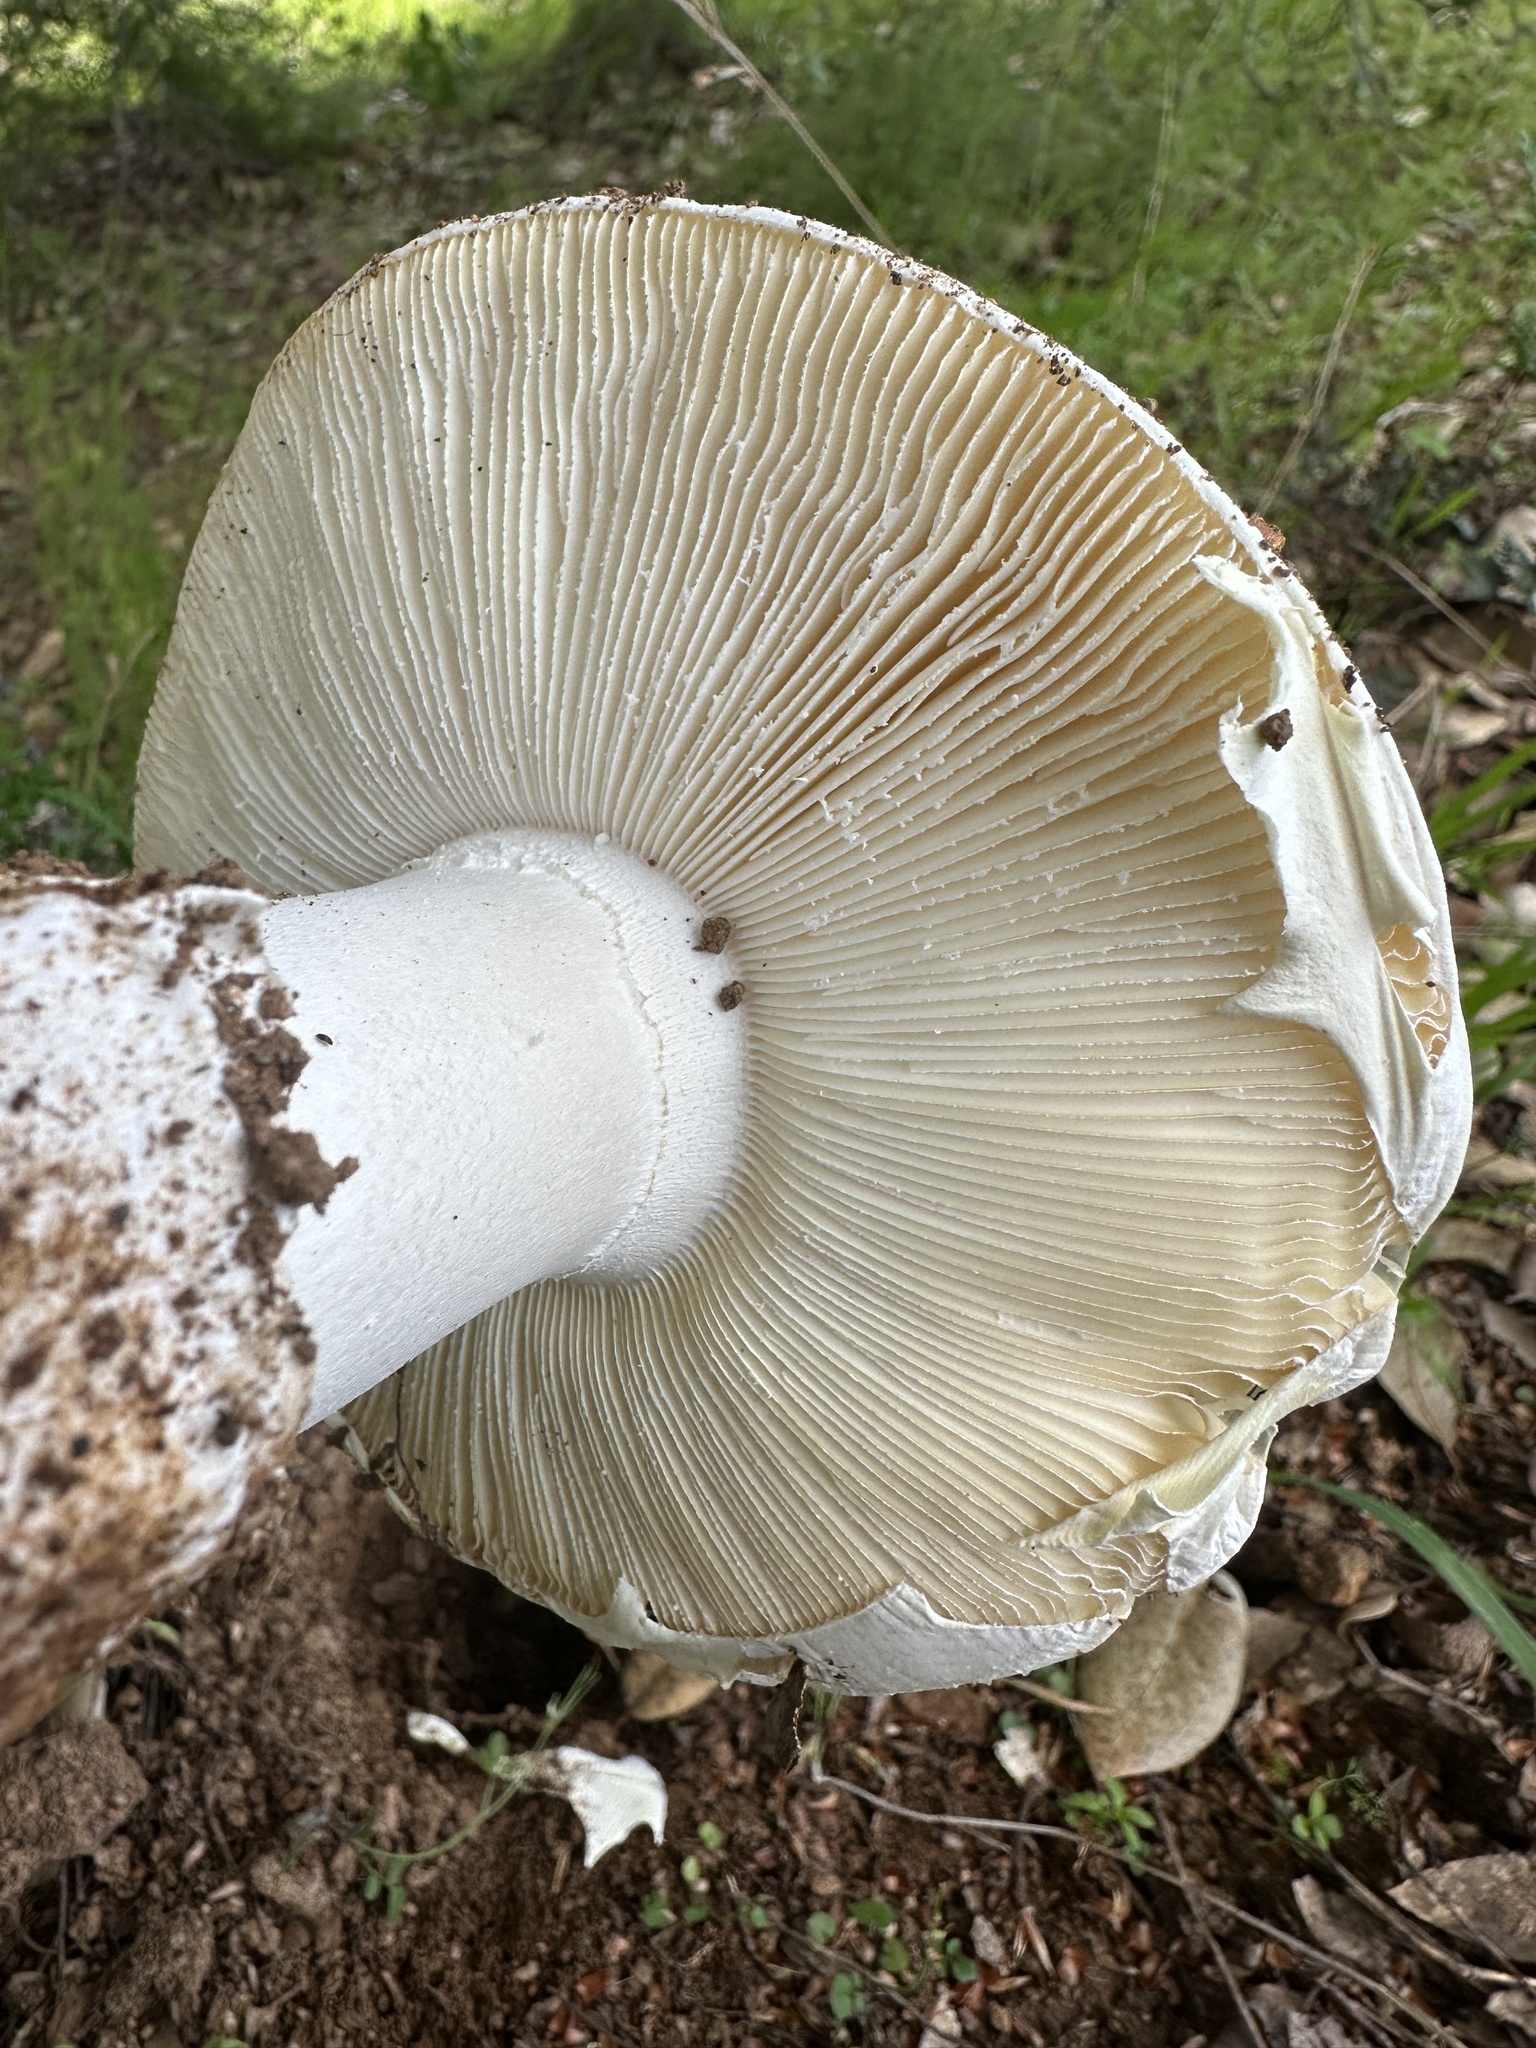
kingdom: Fungi
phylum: Basidiomycota
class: Agaricomycetes
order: Agaricales
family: Amanitaceae
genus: Amanita
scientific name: Amanita ocreata
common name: Western destroying angel
